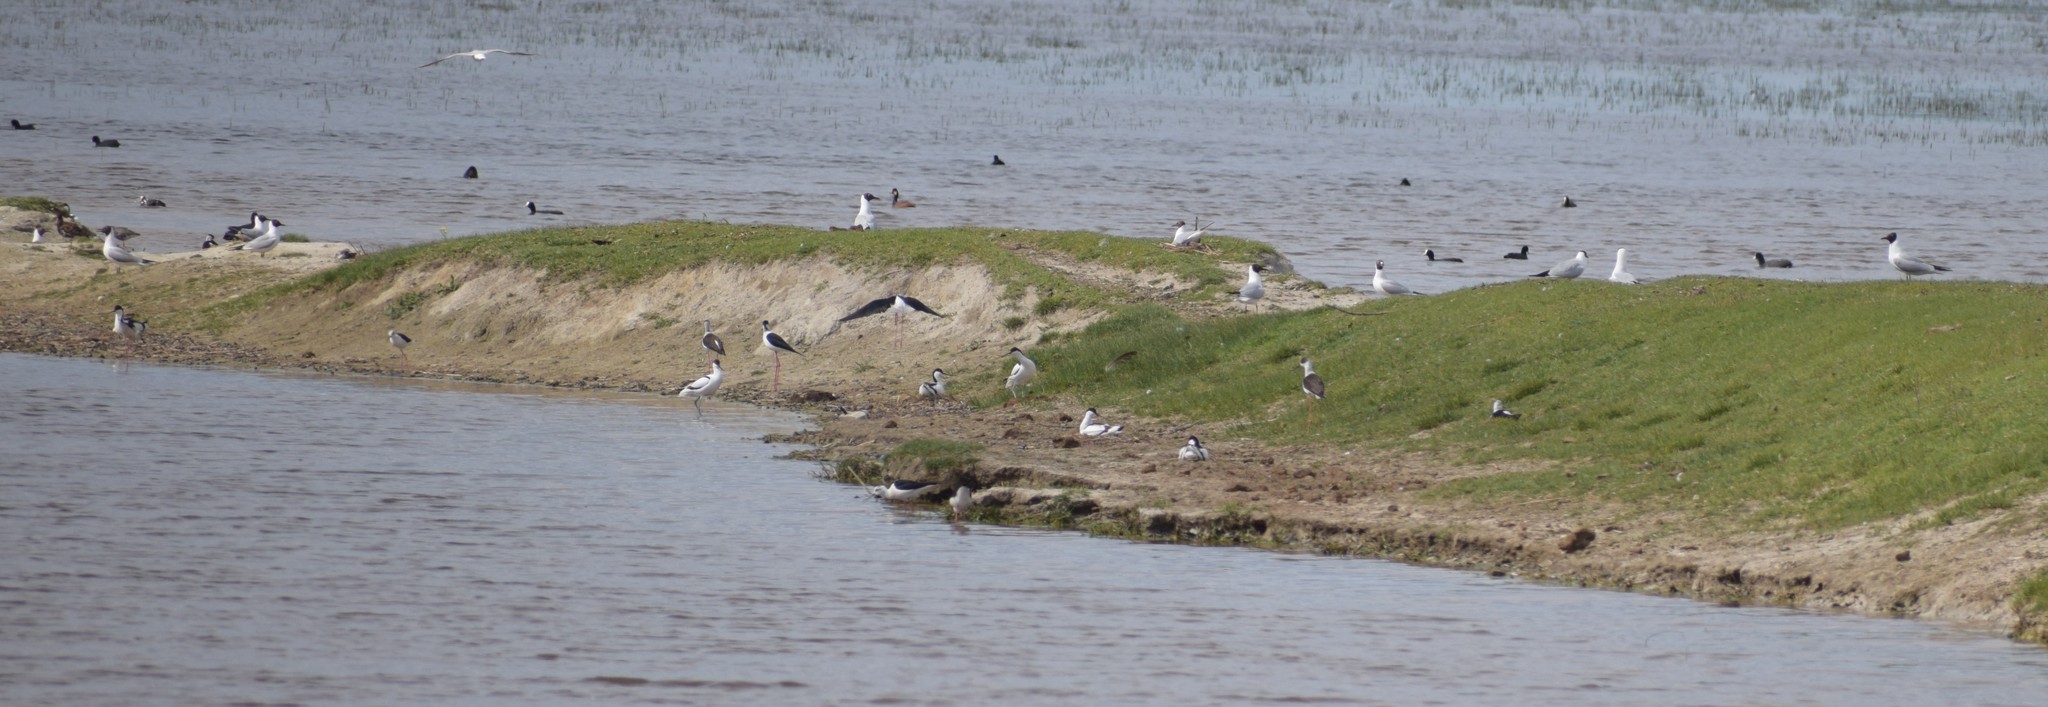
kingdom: Animalia
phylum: Chordata
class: Aves
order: Gruiformes
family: Rallidae
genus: Fulica
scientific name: Fulica atra
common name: Eurasian coot
